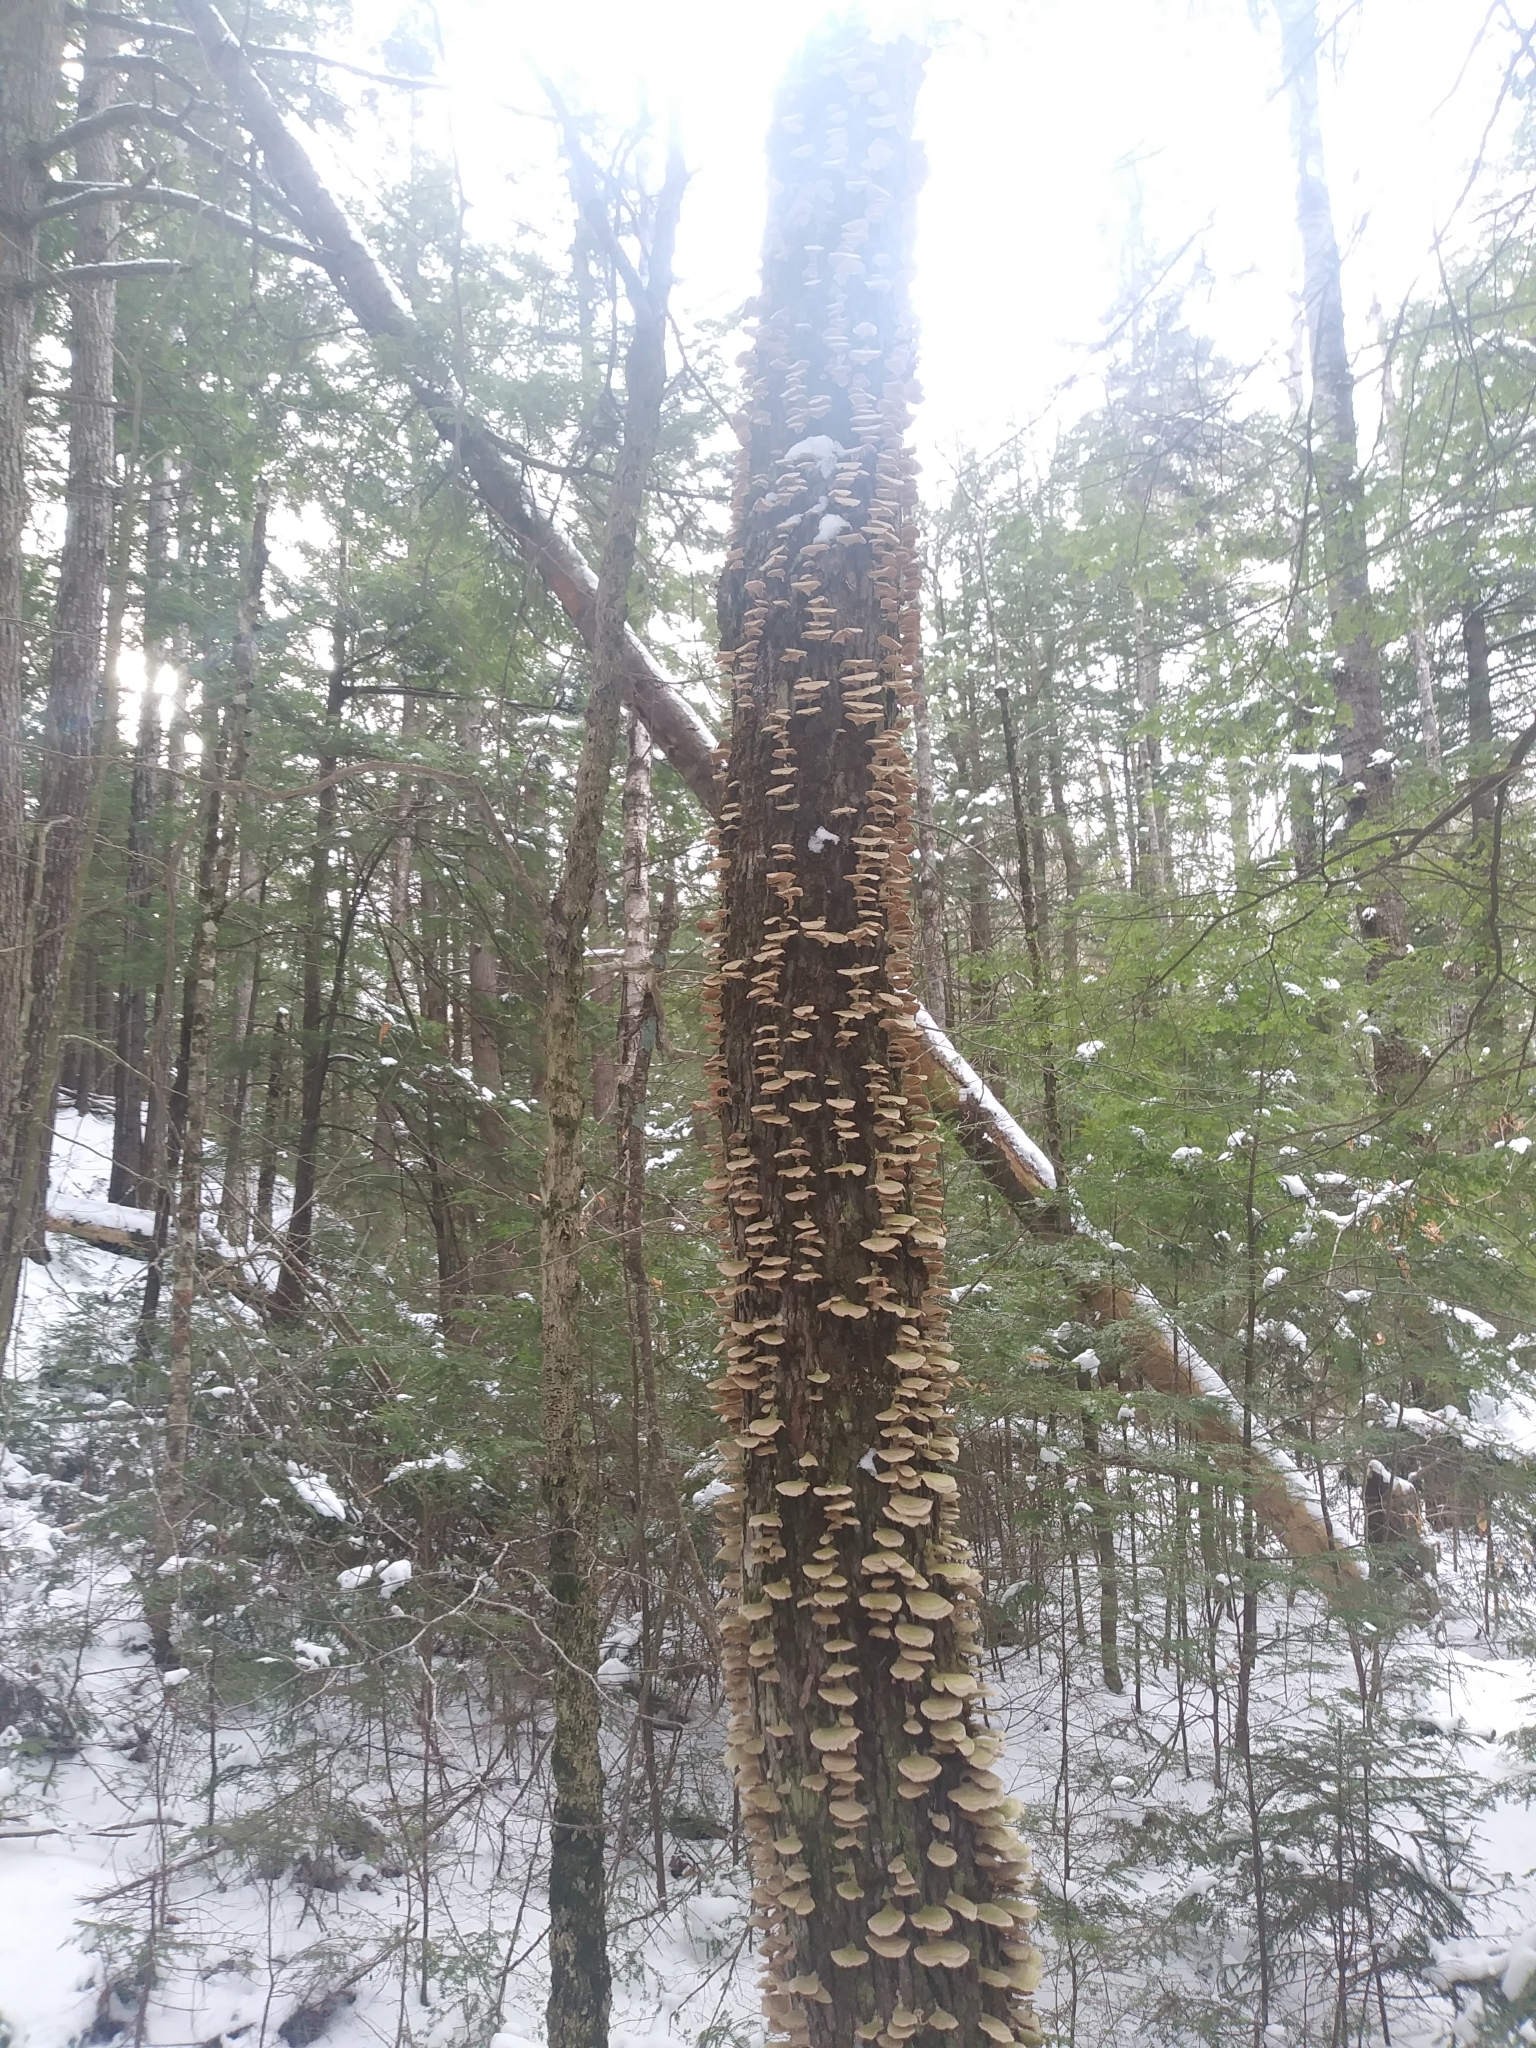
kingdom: Fungi
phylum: Basidiomycota
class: Agaricomycetes
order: Hymenochaetales
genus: Trichaptum
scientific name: Trichaptum biforme
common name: Violet-toothed polypore
